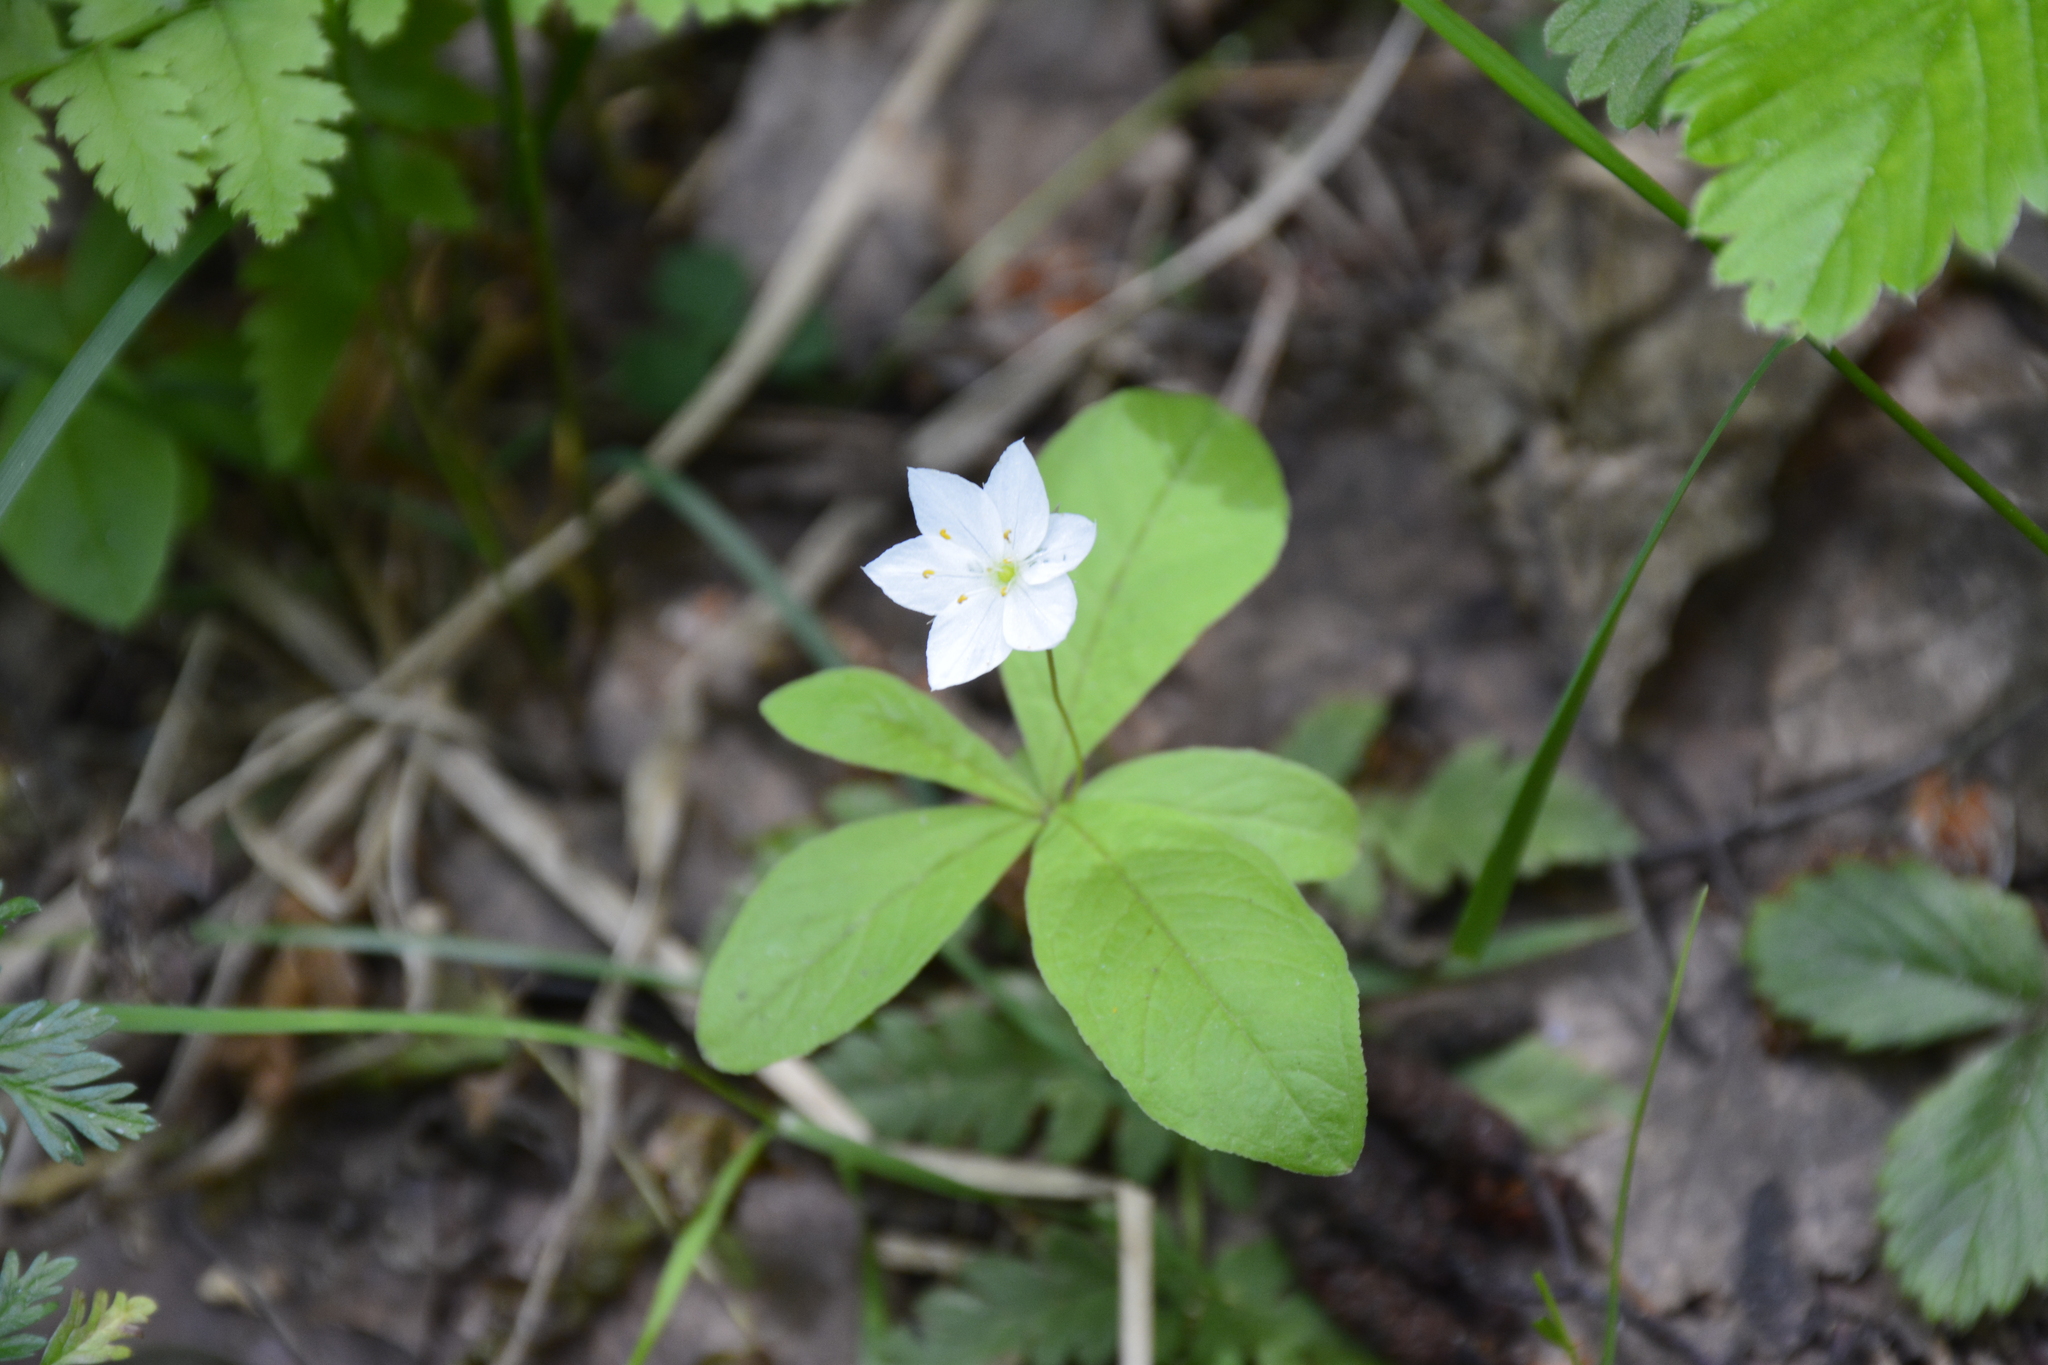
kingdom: Plantae
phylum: Tracheophyta
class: Magnoliopsida
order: Ericales
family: Primulaceae
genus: Lysimachia
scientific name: Lysimachia europaea
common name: Arctic starflower
